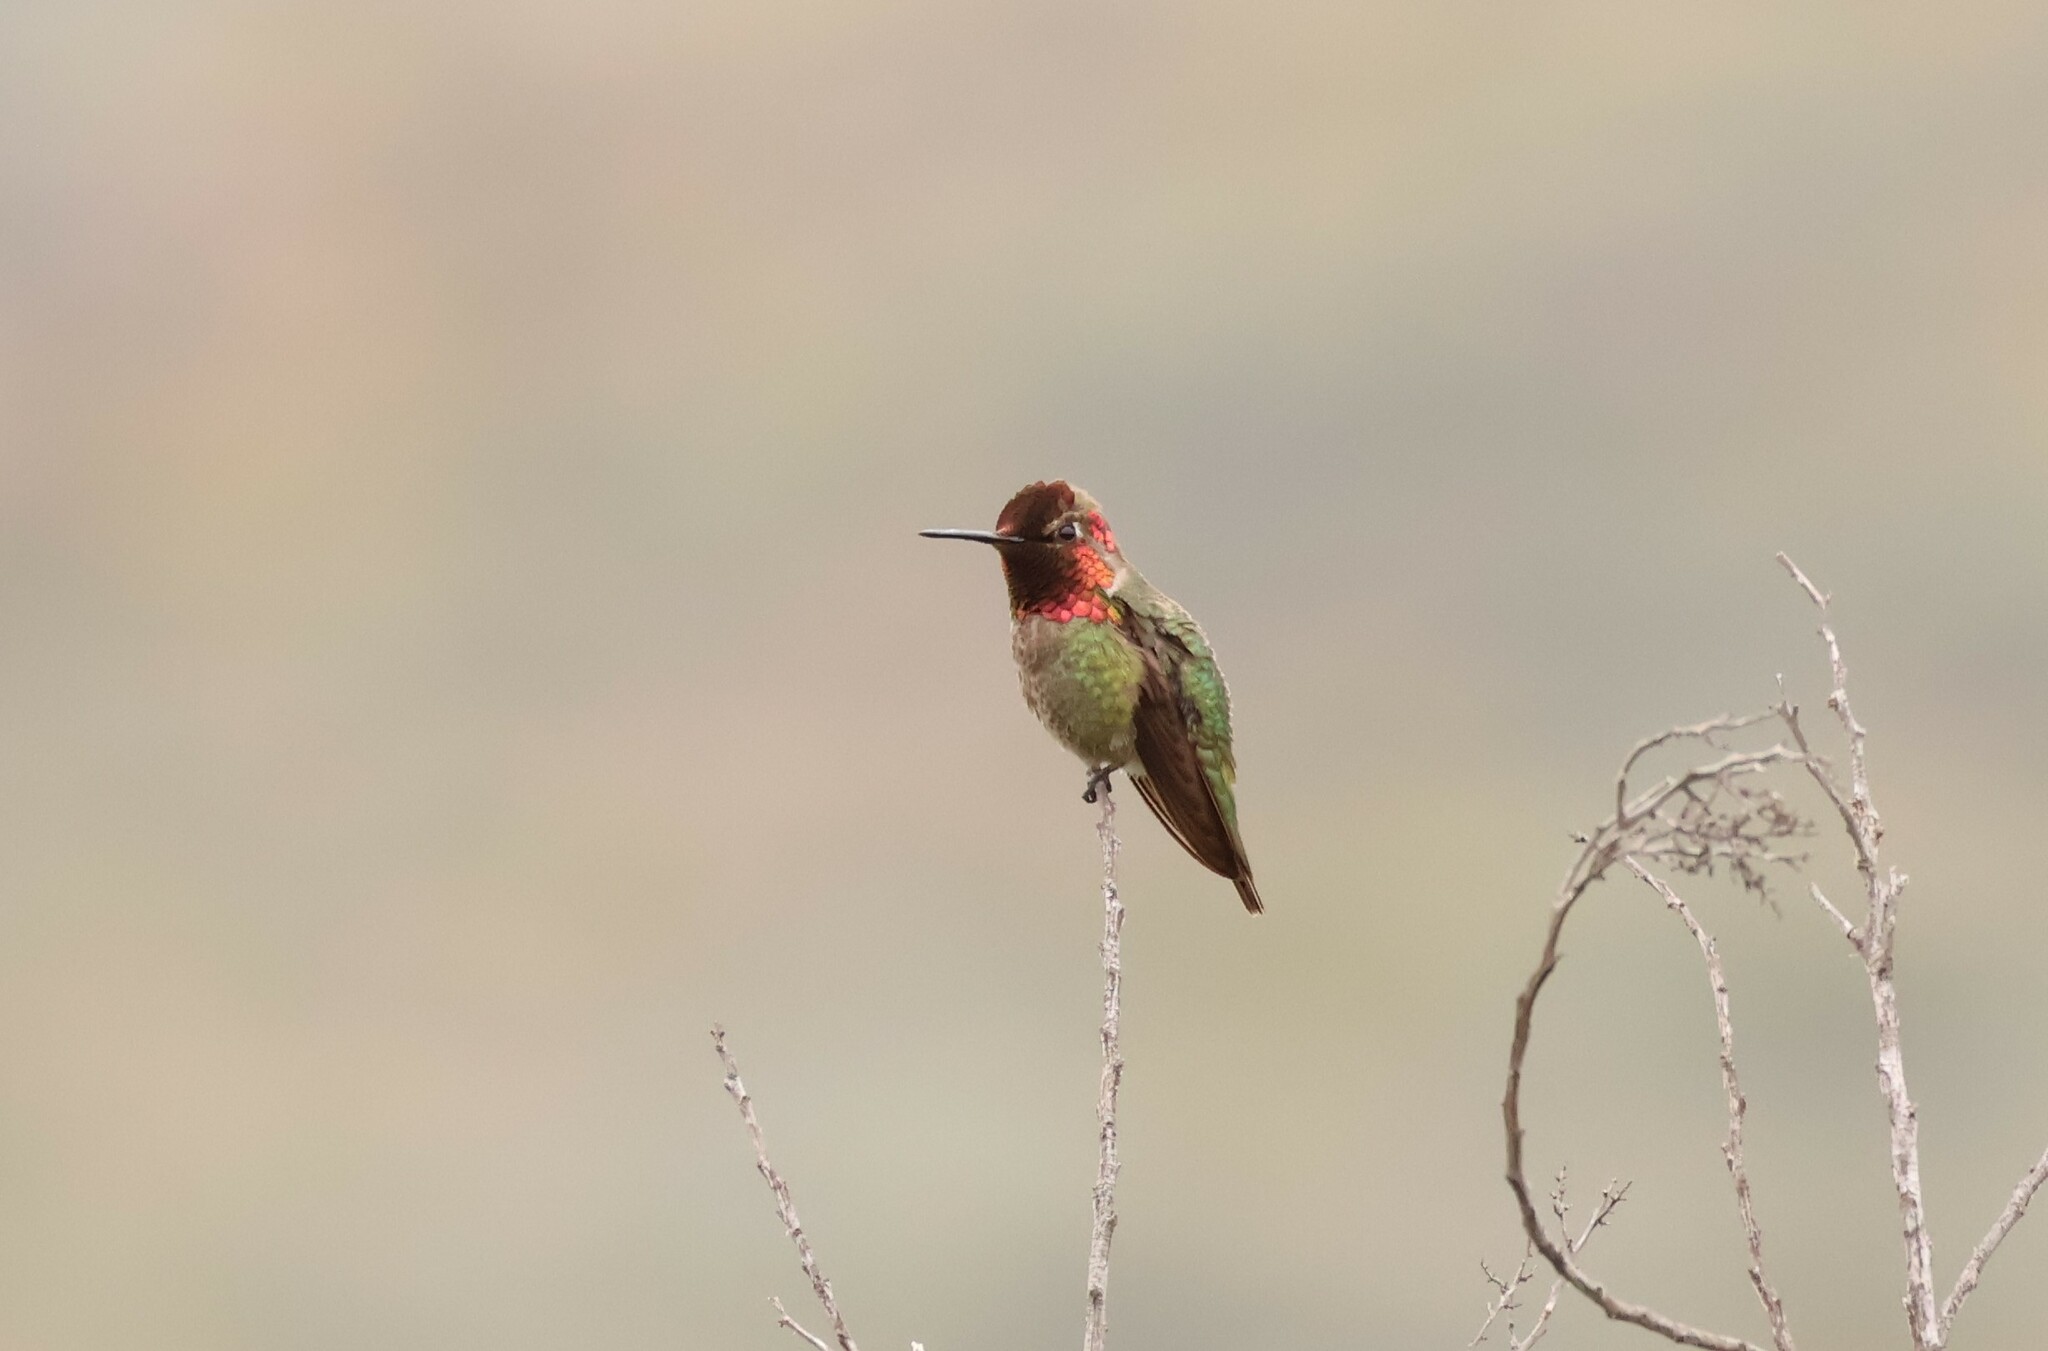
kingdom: Animalia
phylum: Chordata
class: Aves
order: Apodiformes
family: Trochilidae
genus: Calypte
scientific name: Calypte anna
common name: Anna's hummingbird
